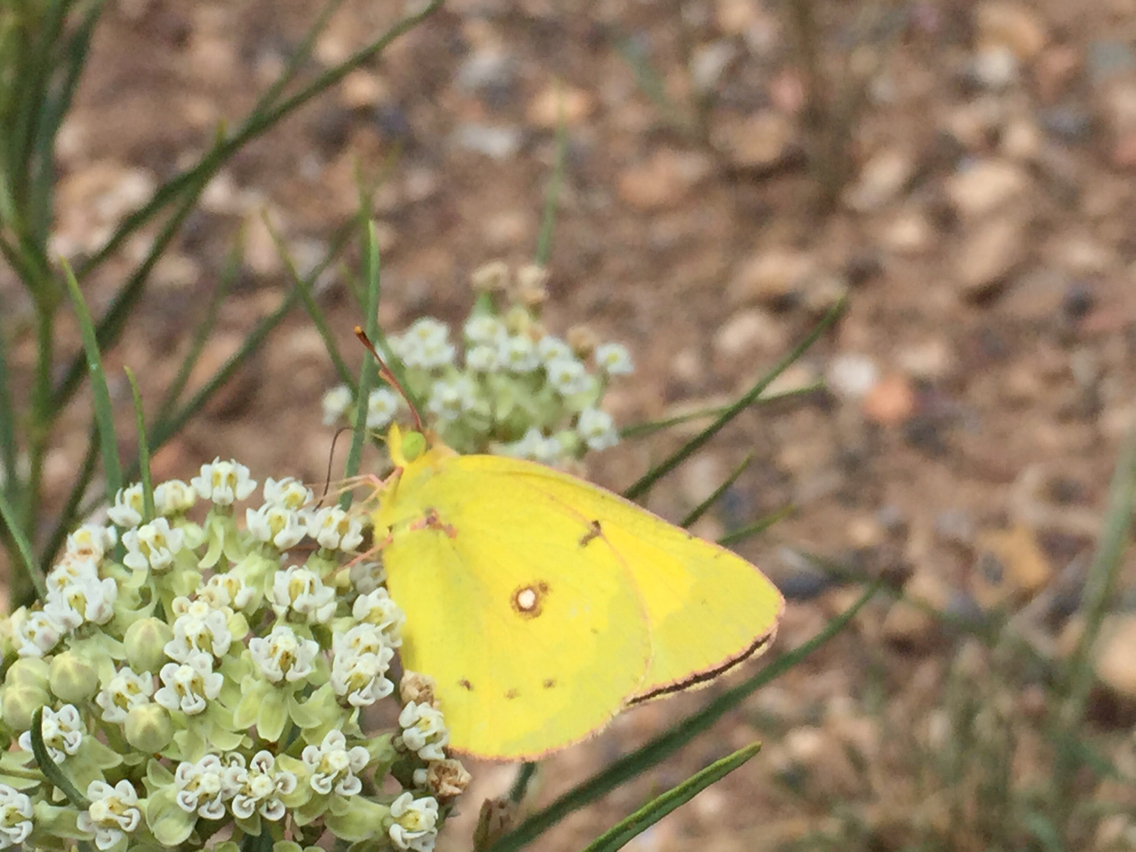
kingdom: Animalia
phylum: Arthropoda
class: Insecta
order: Lepidoptera
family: Pieridae
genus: Colias
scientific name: Colias eurytheme
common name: Alfalfa butterfly
